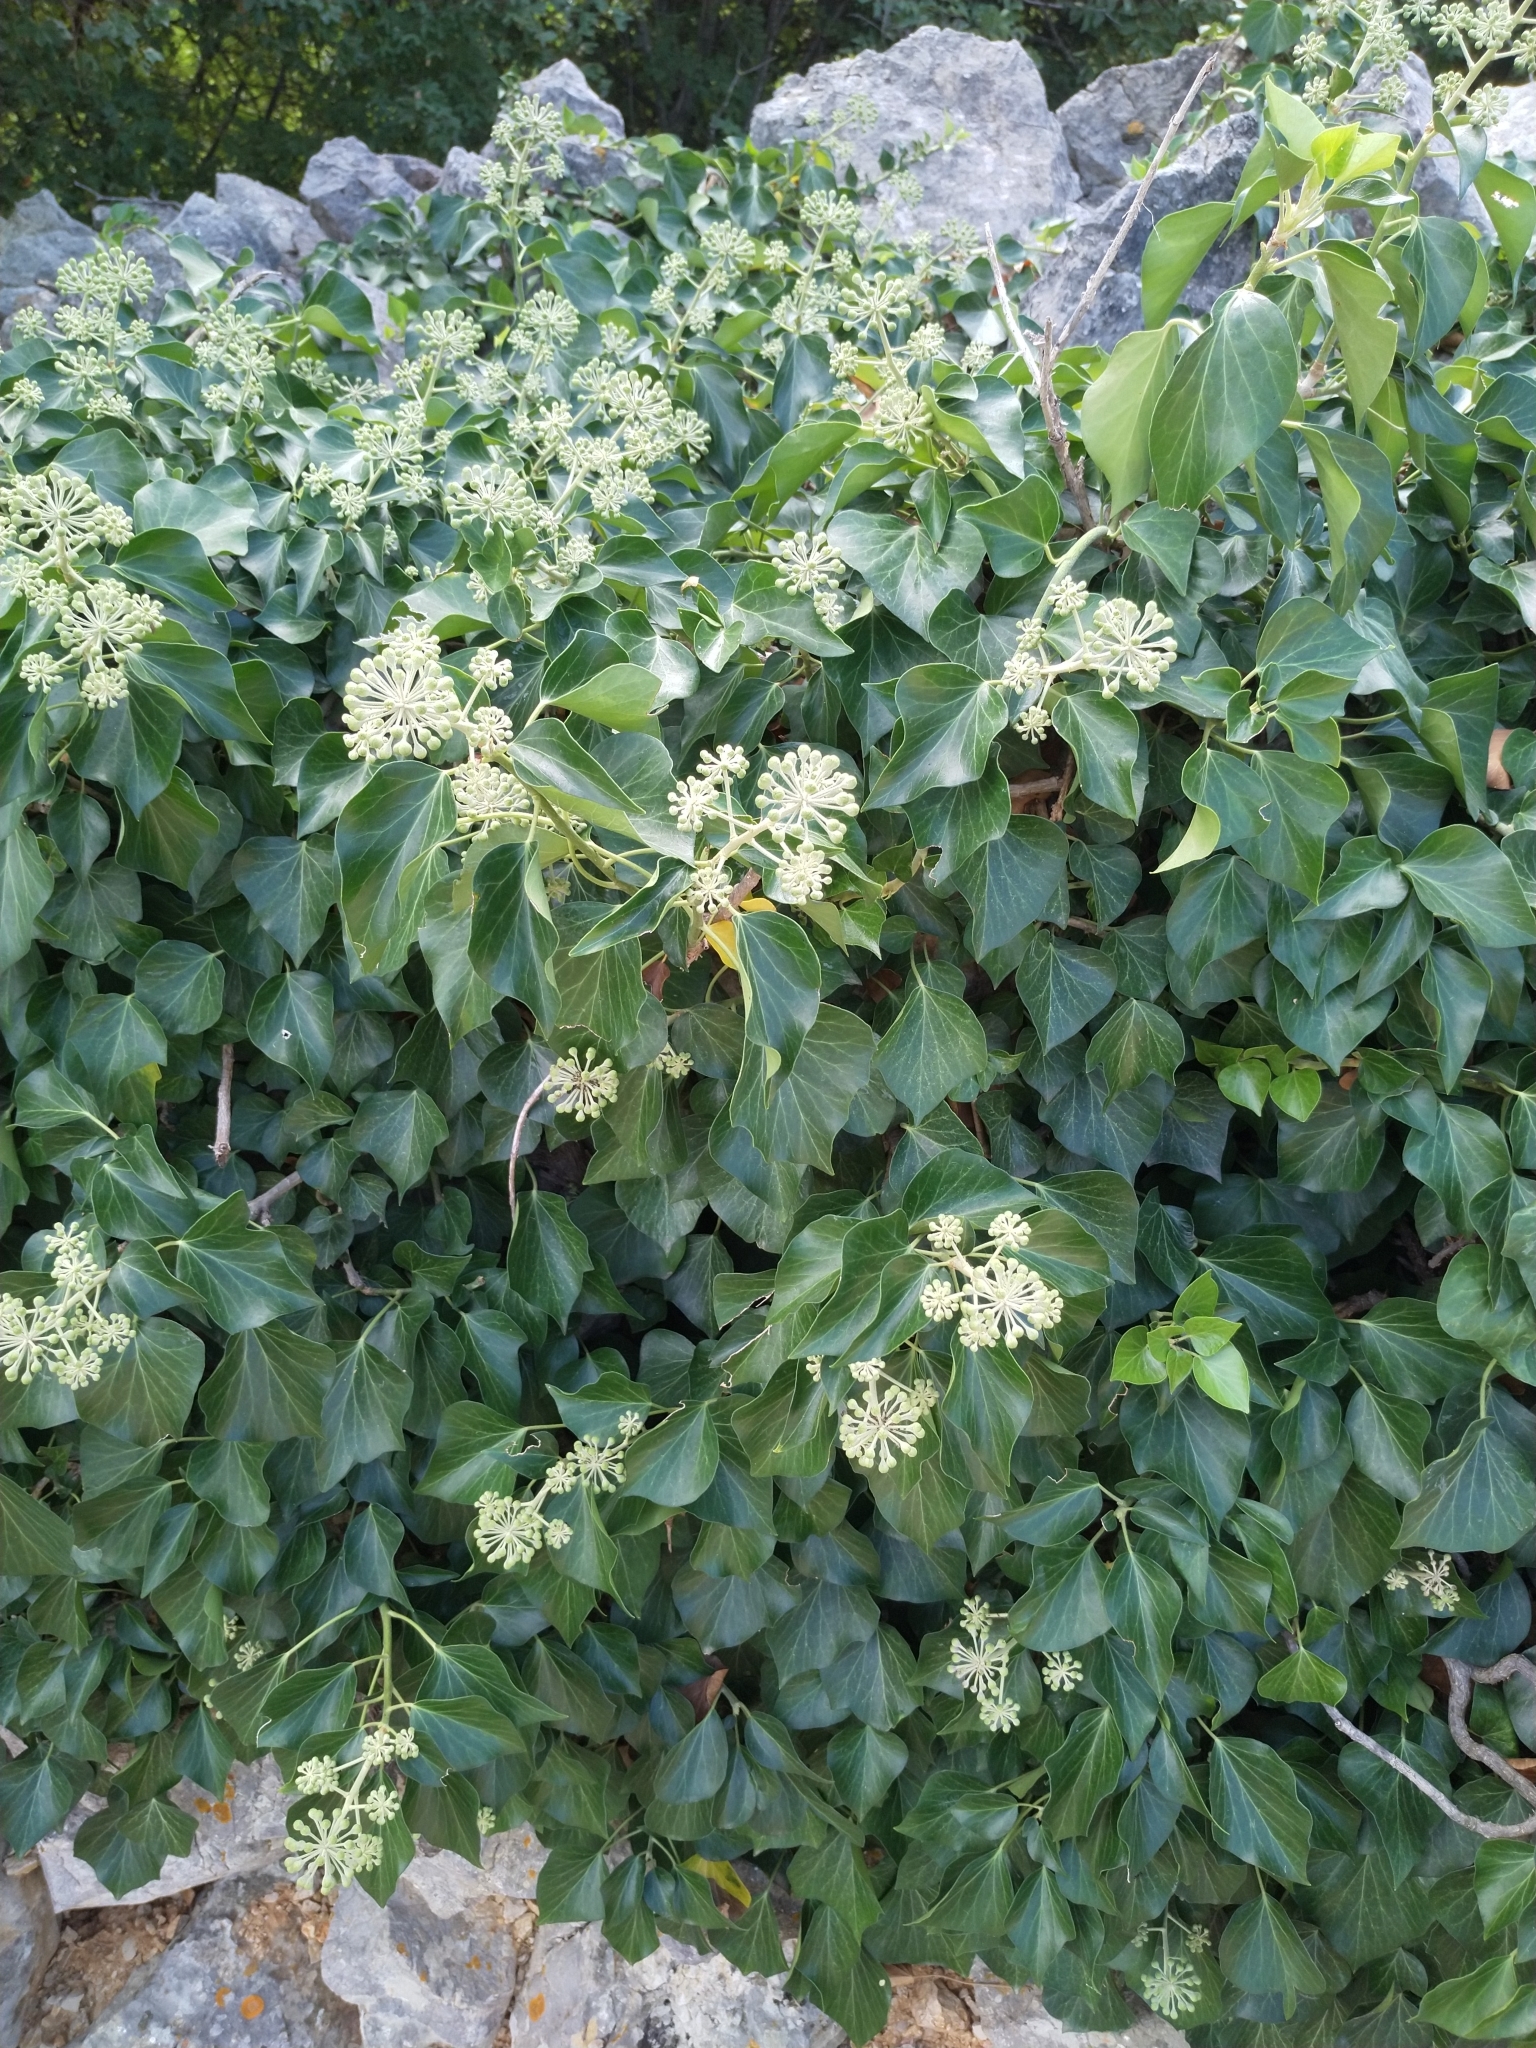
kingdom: Plantae
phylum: Tracheophyta
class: Magnoliopsida
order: Apiales
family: Araliaceae
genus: Hedera
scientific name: Hedera helix
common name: Ivy
